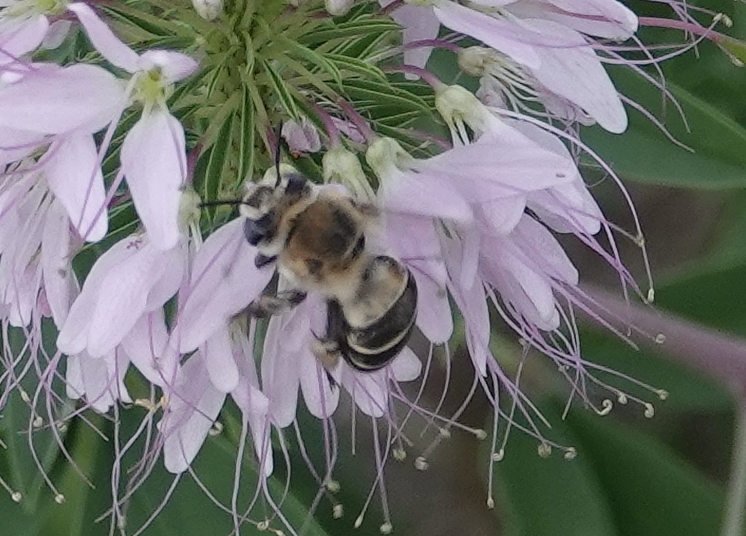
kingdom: Animalia
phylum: Arthropoda
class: Insecta
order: Hymenoptera
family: Apidae
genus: Anthophora
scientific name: Anthophora walshii
